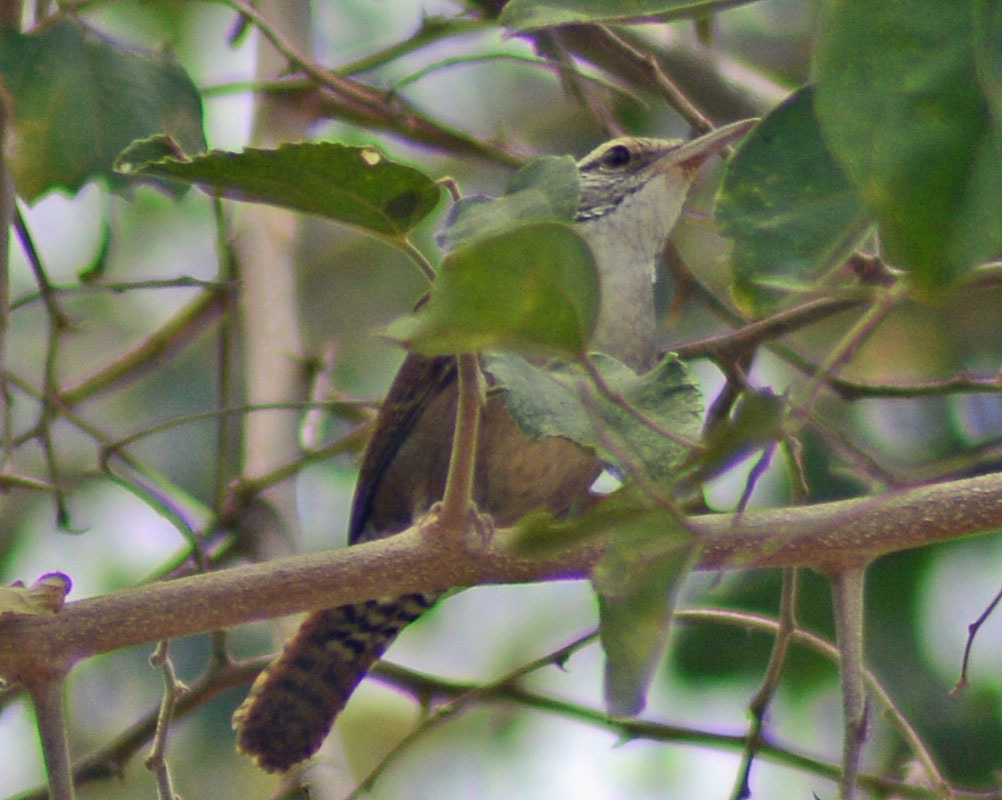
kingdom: Animalia
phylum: Chordata
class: Aves
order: Passeriformes
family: Troglodytidae
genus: Thryophilus
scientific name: Thryophilus sinaloa
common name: Sinaloa wren
